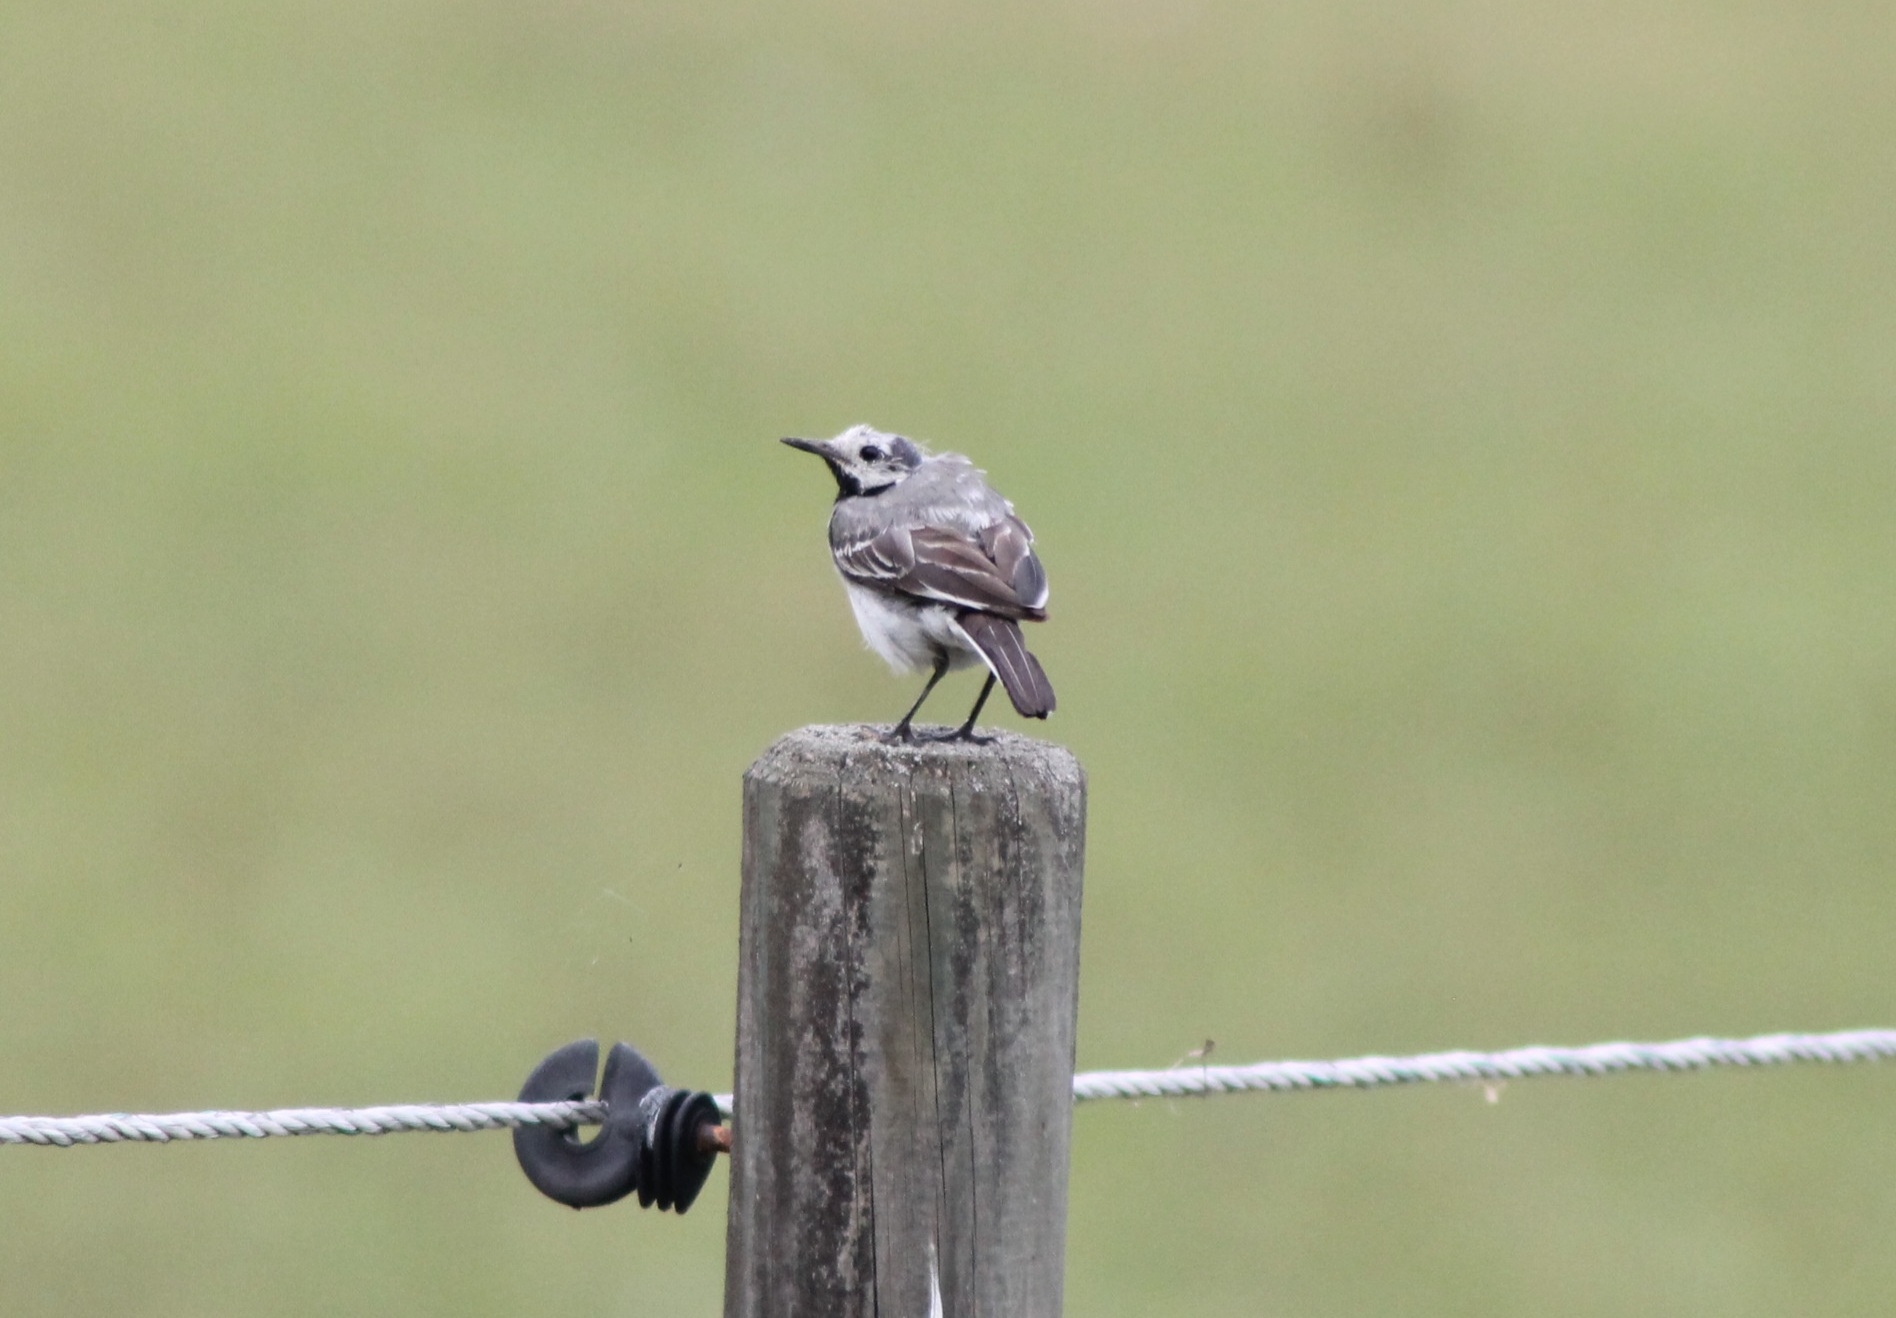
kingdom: Animalia
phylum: Chordata
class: Aves
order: Passeriformes
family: Motacillidae
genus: Motacilla
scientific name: Motacilla alba
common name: White wagtail
